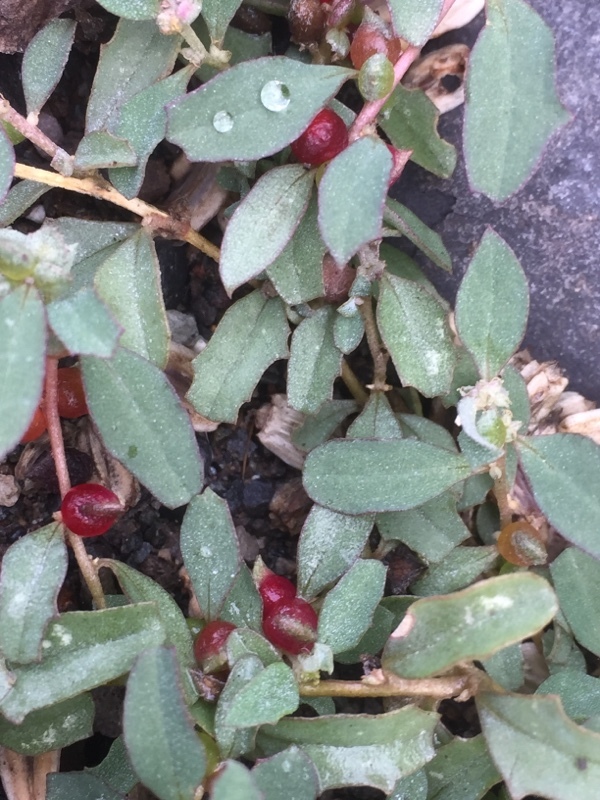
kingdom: Plantae
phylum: Tracheophyta
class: Magnoliopsida
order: Caryophyllales
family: Amaranthaceae
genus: Atriplex
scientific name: Atriplex semibaccata
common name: Australian saltbush
